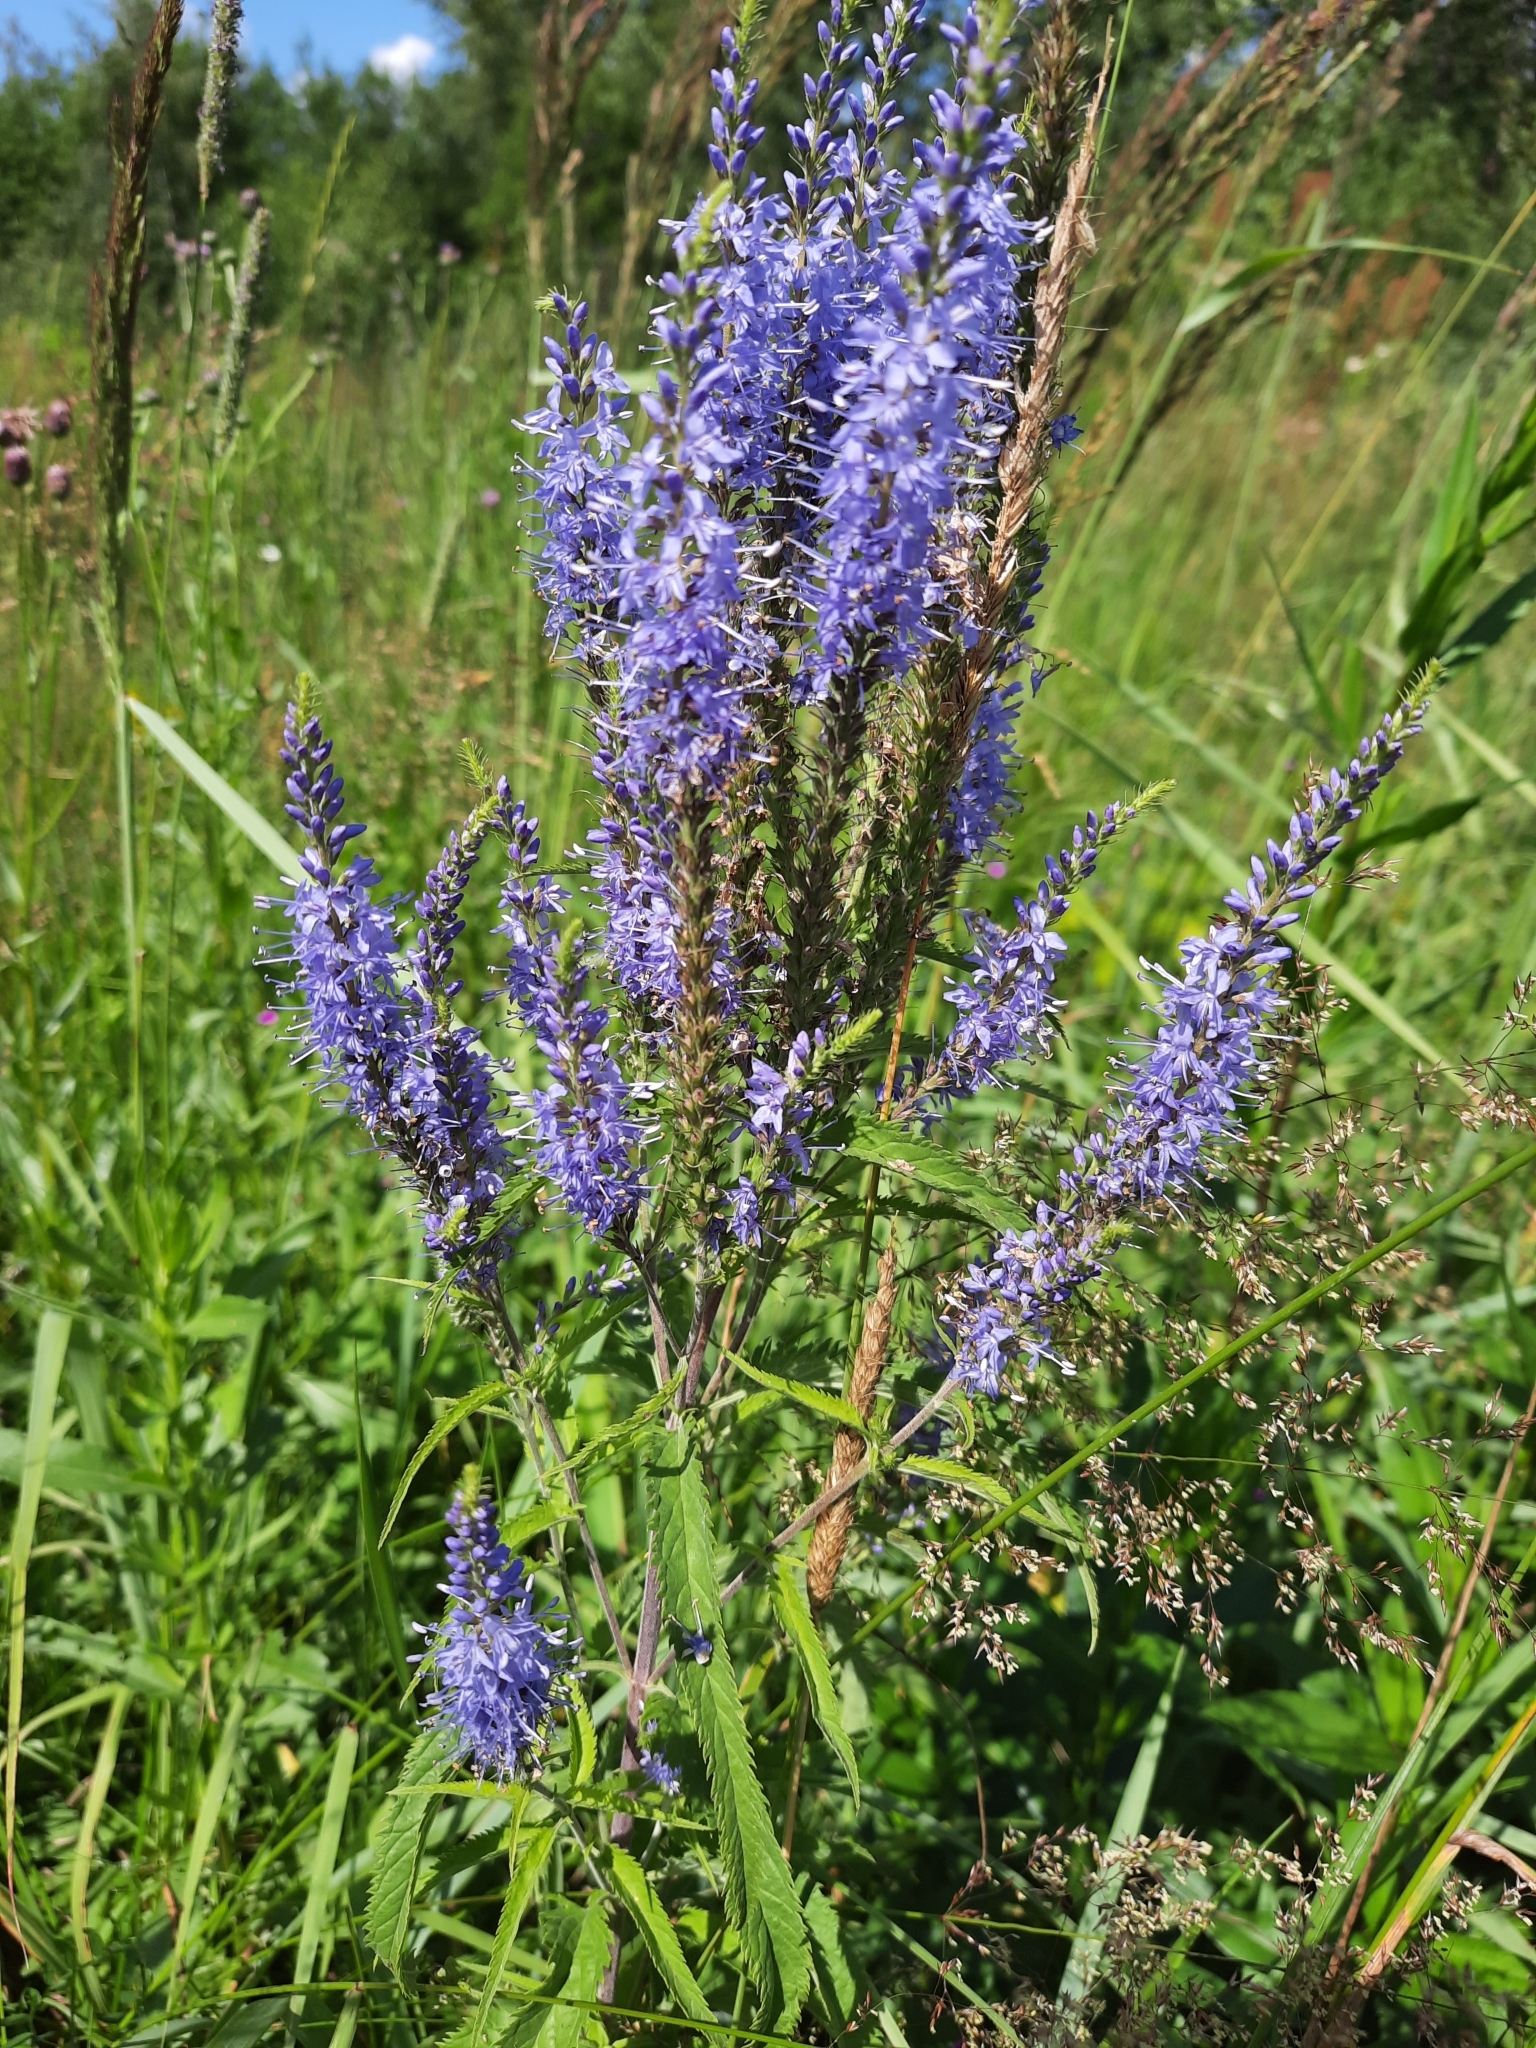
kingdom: Plantae
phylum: Tracheophyta
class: Magnoliopsida
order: Lamiales
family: Plantaginaceae
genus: Veronica
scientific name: Veronica longifolia
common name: Garden speedwell
